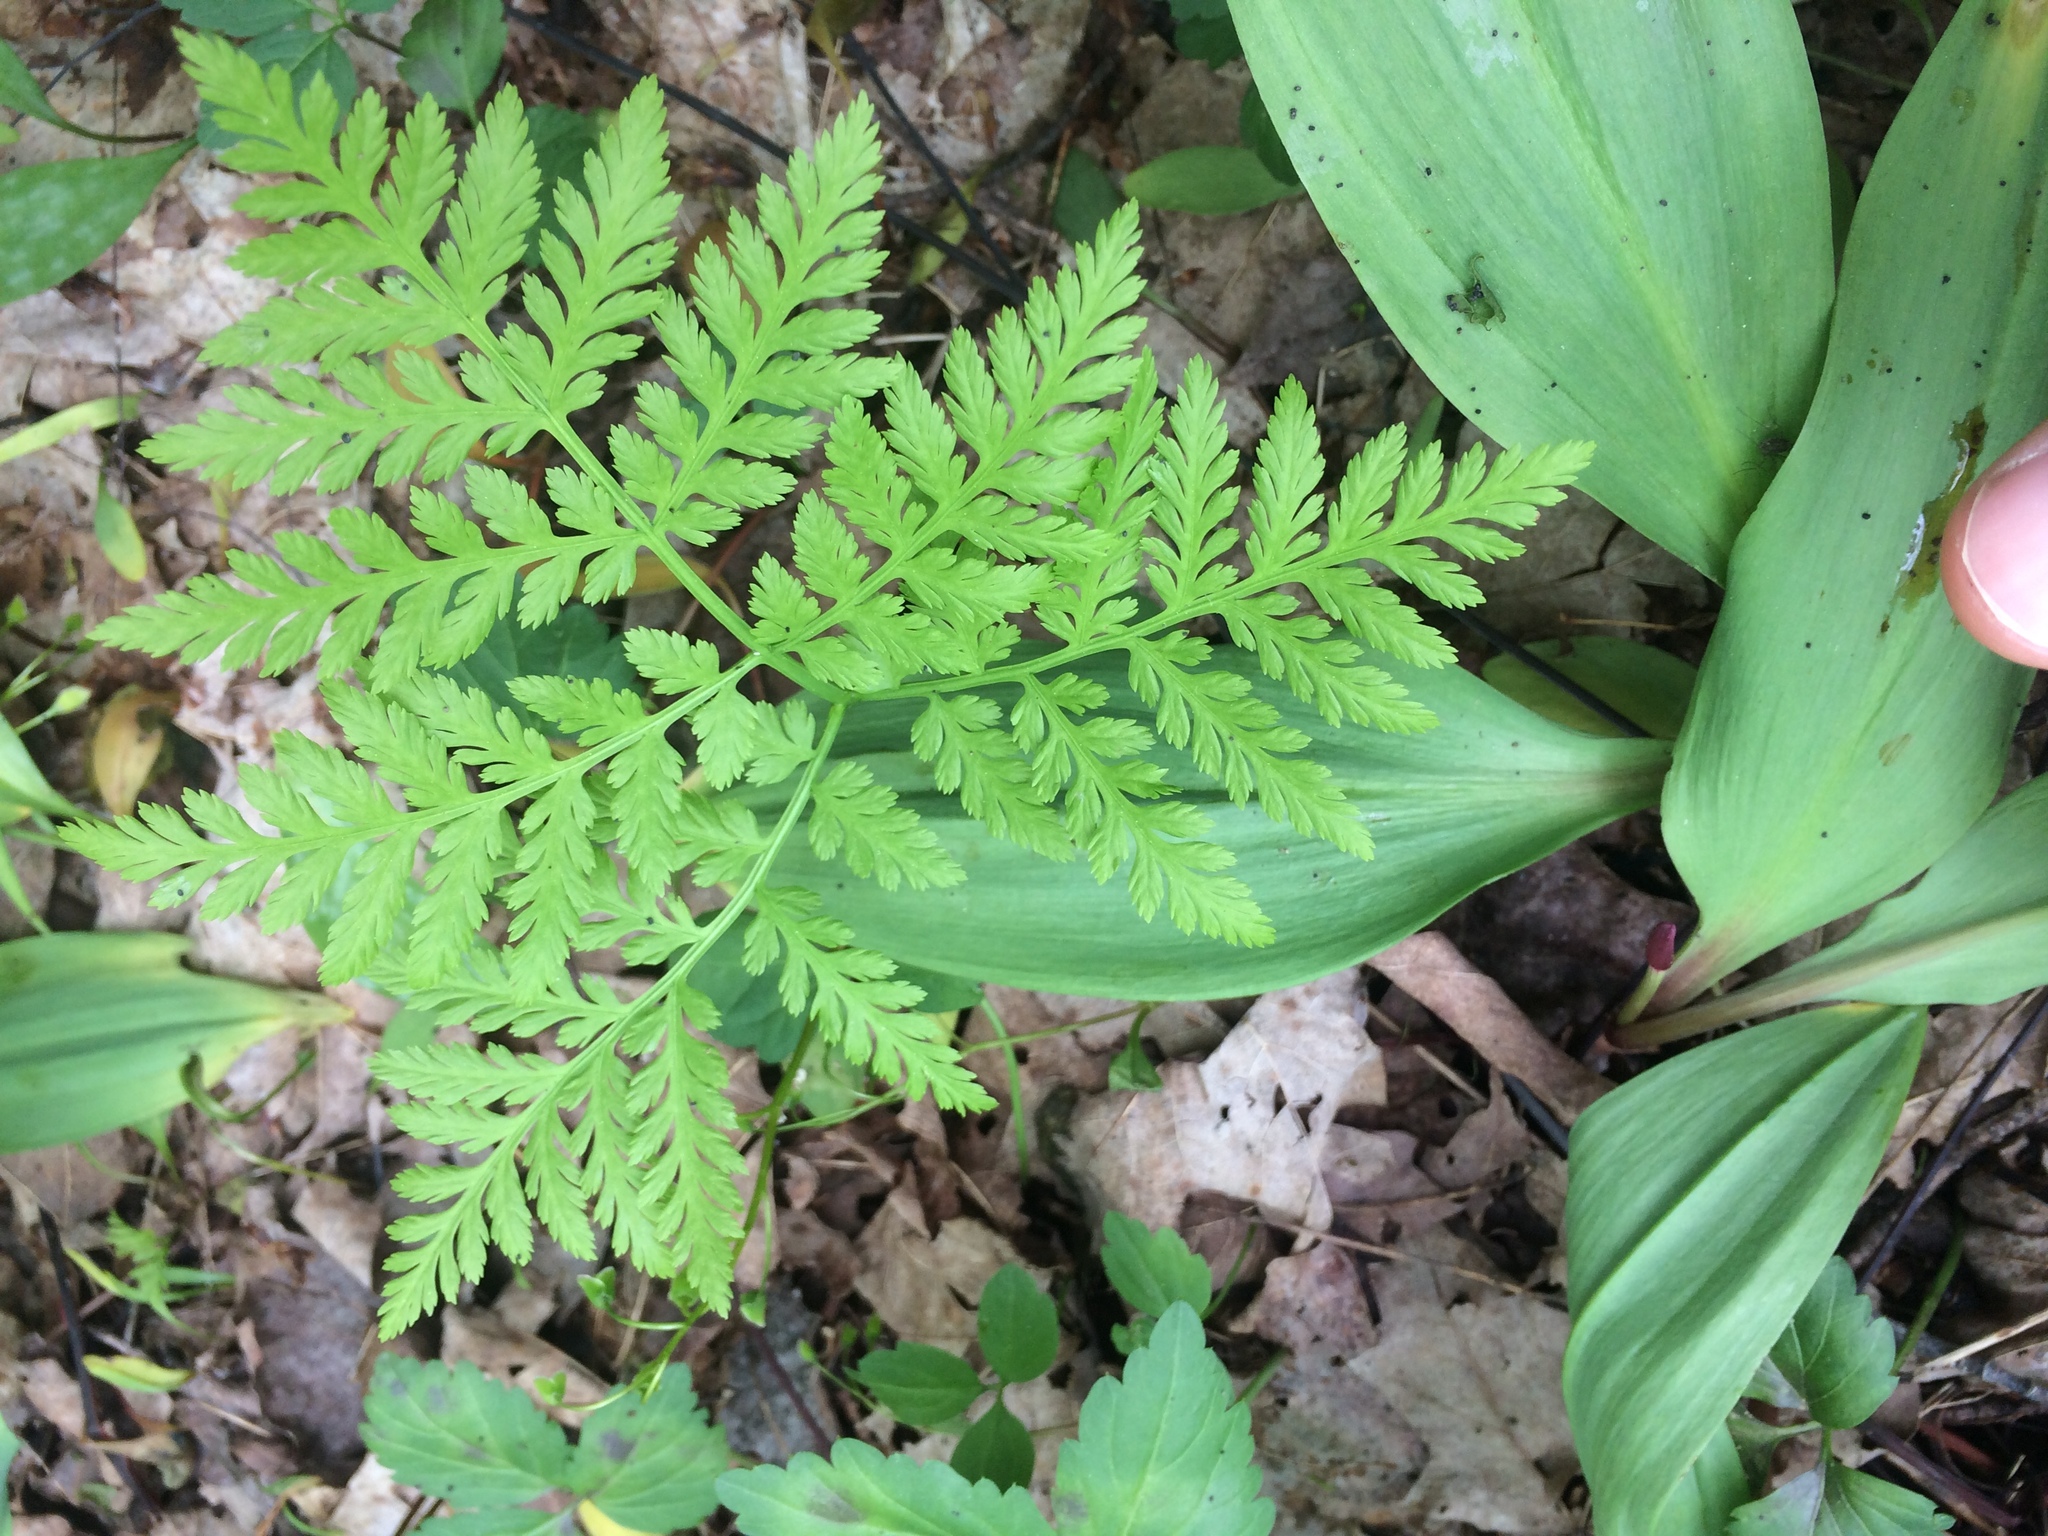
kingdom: Plantae
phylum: Tracheophyta
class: Polypodiopsida
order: Ophioglossales
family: Ophioglossaceae
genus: Botrypus
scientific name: Botrypus virginianus
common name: Common grapefern
